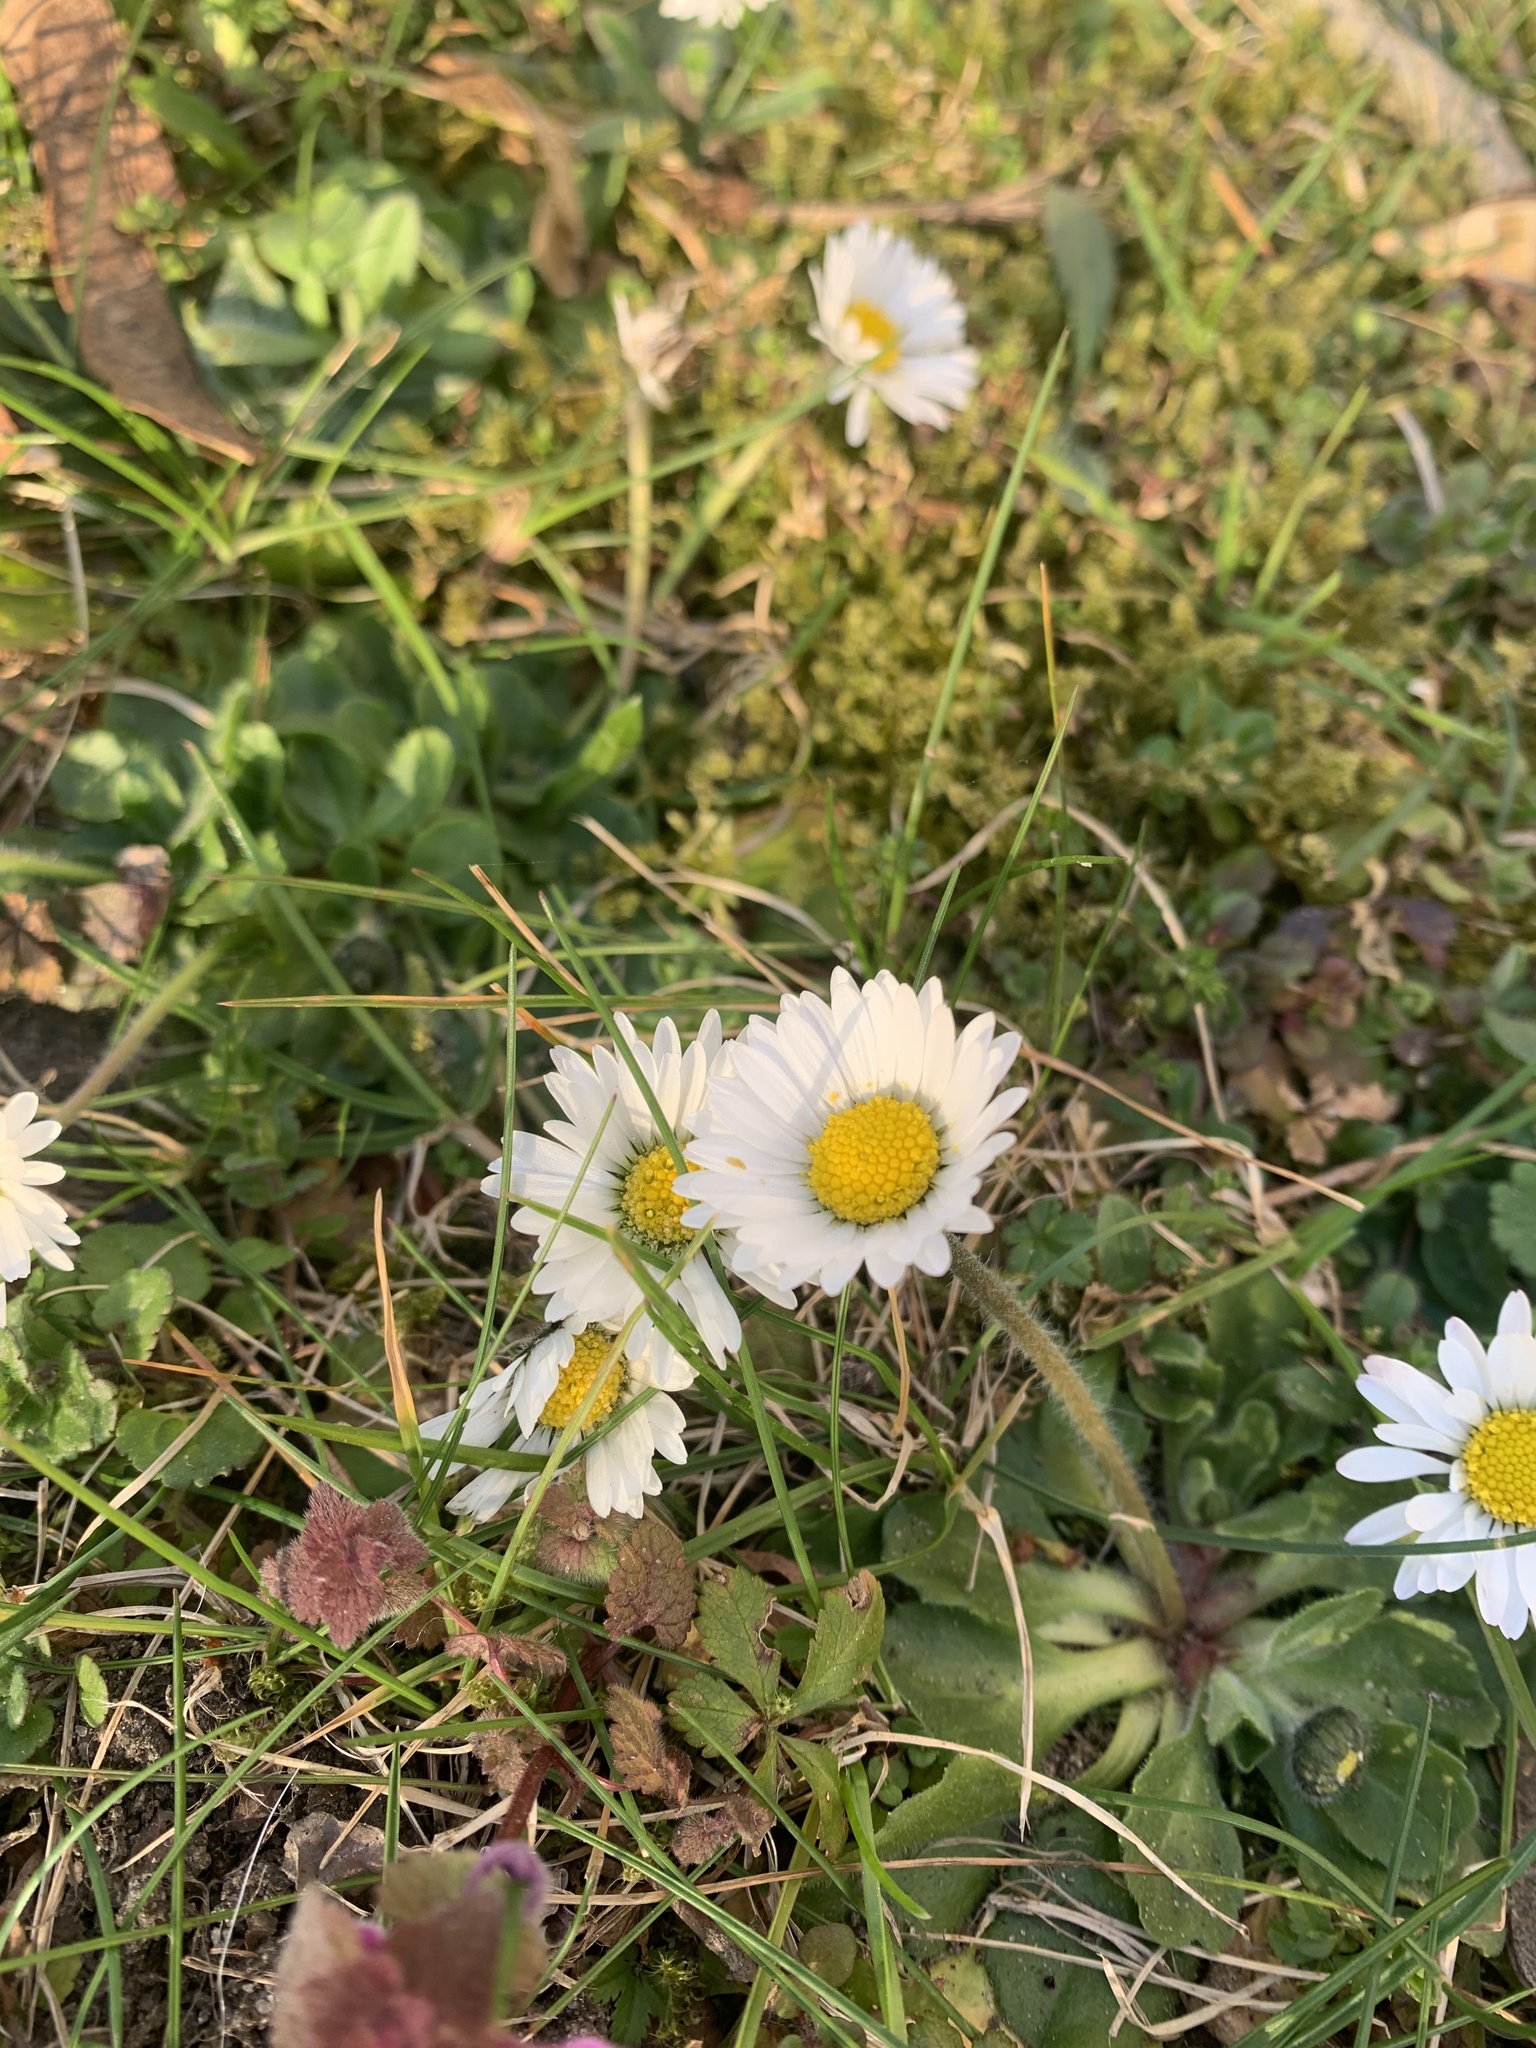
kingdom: Plantae
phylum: Tracheophyta
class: Magnoliopsida
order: Asterales
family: Asteraceae
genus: Bellis
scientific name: Bellis perennis
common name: Lawndaisy
